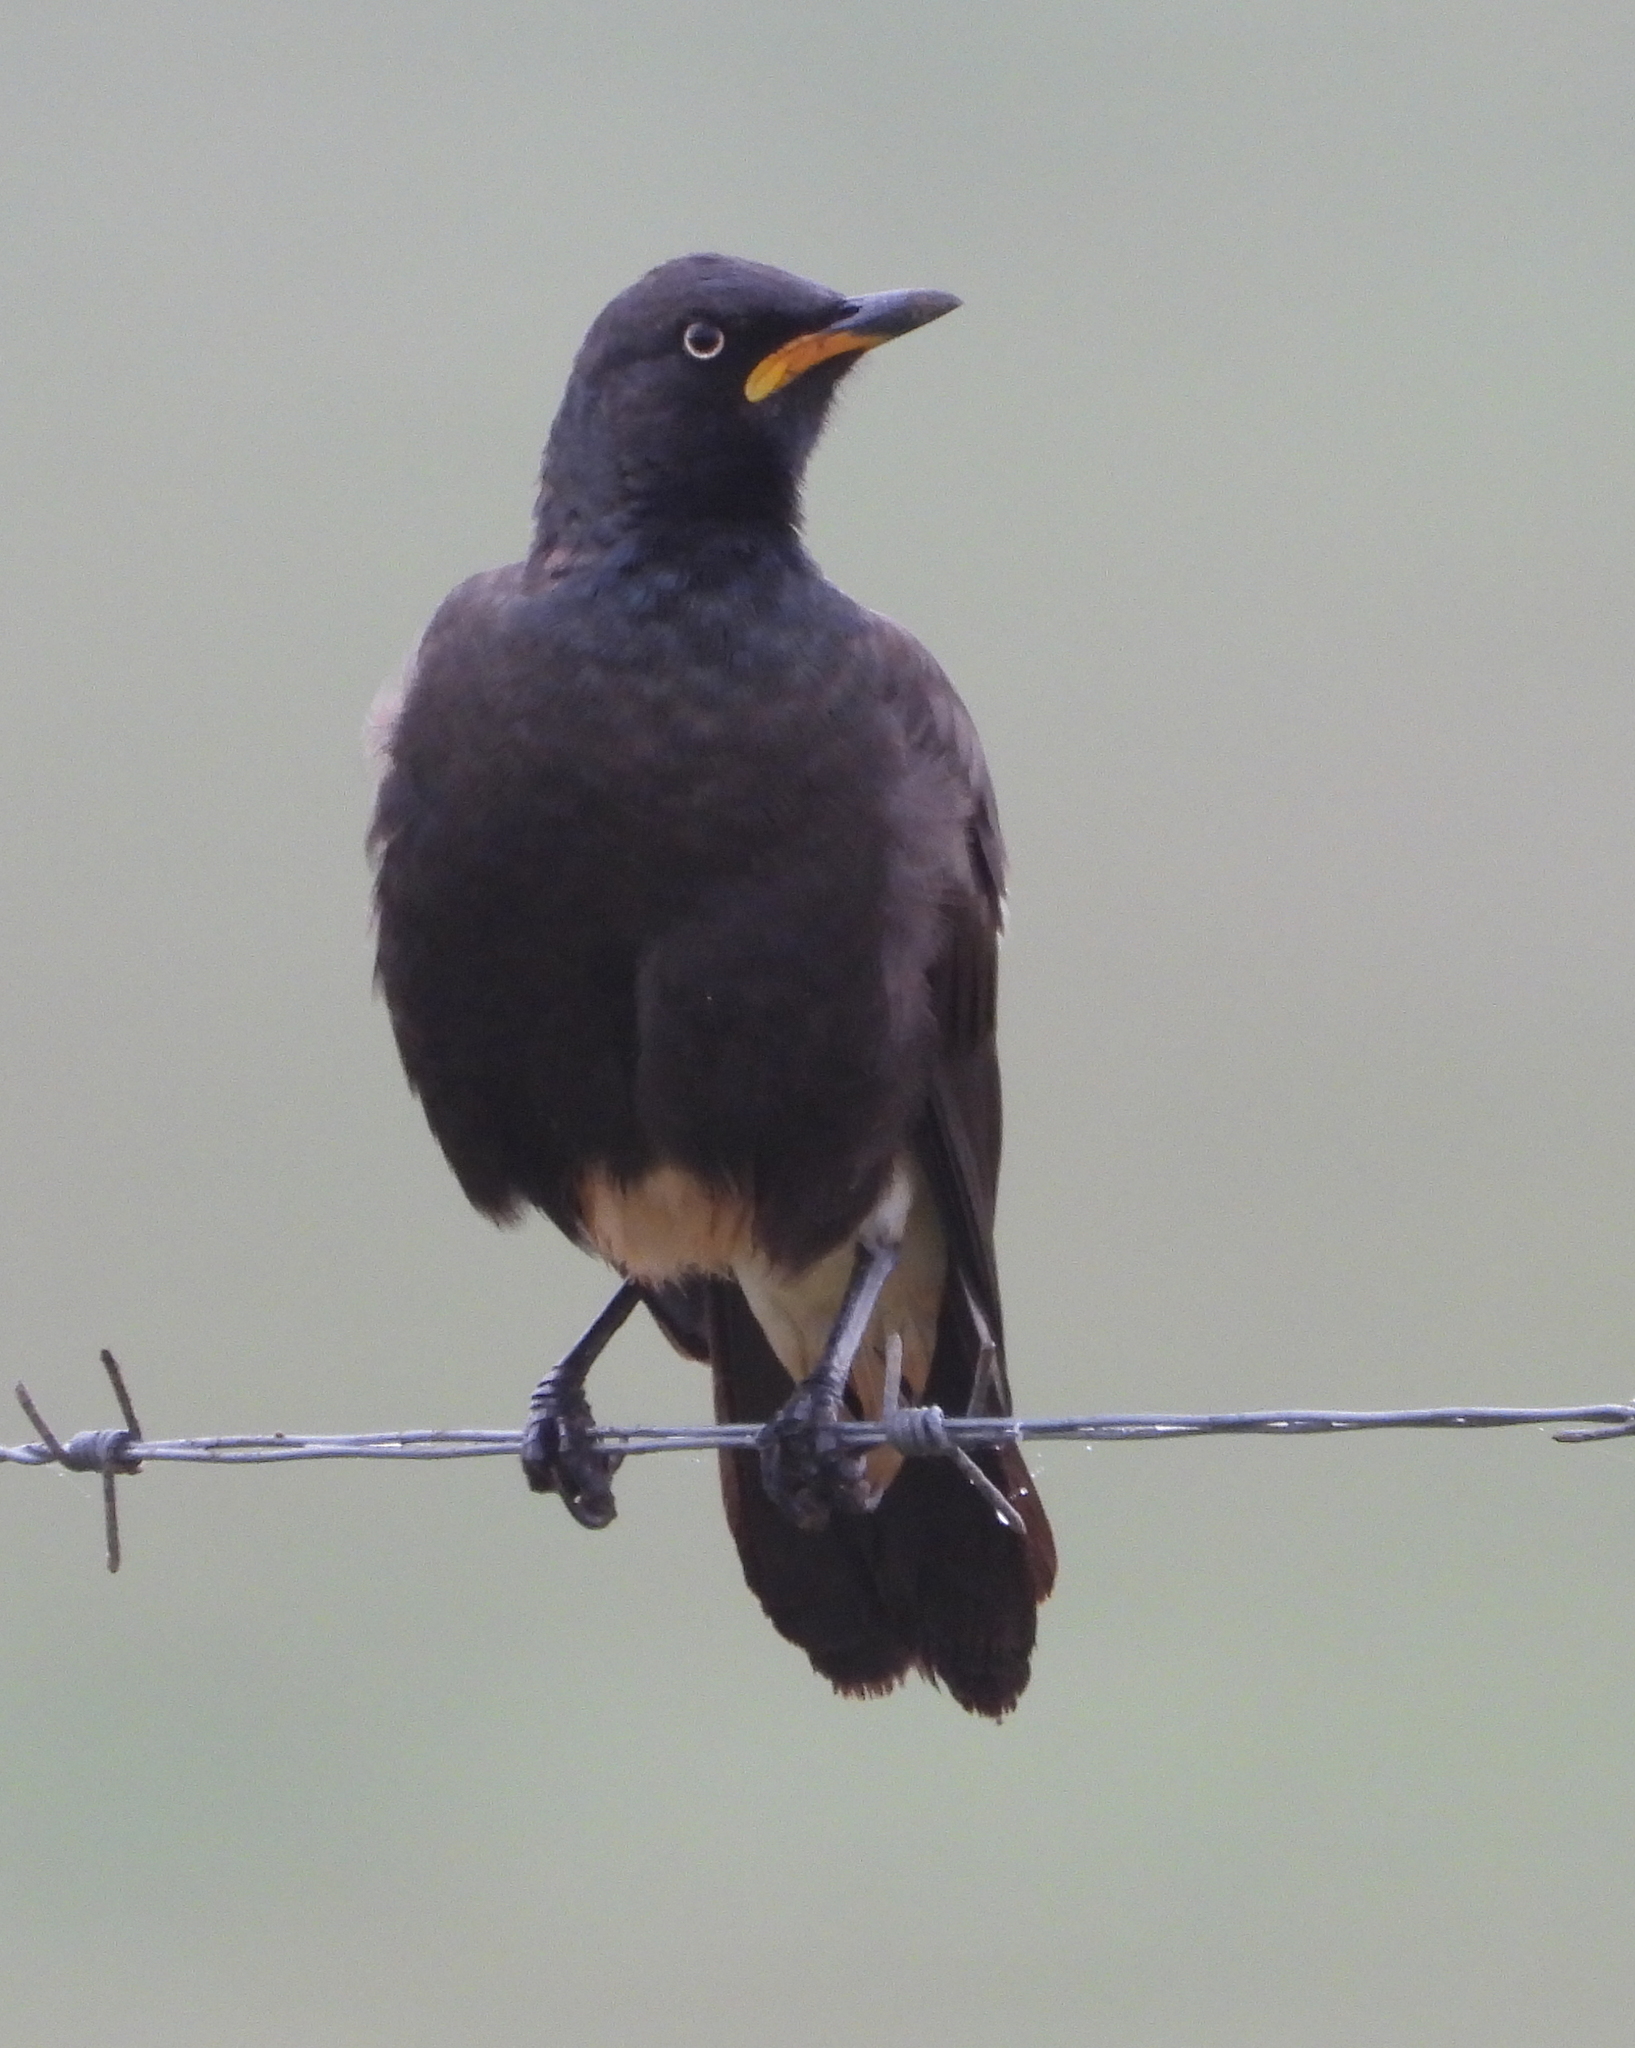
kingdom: Animalia
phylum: Chordata
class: Aves
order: Passeriformes
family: Sturnidae
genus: Lamprotornis
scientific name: Lamprotornis bicolor
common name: Pied starling
